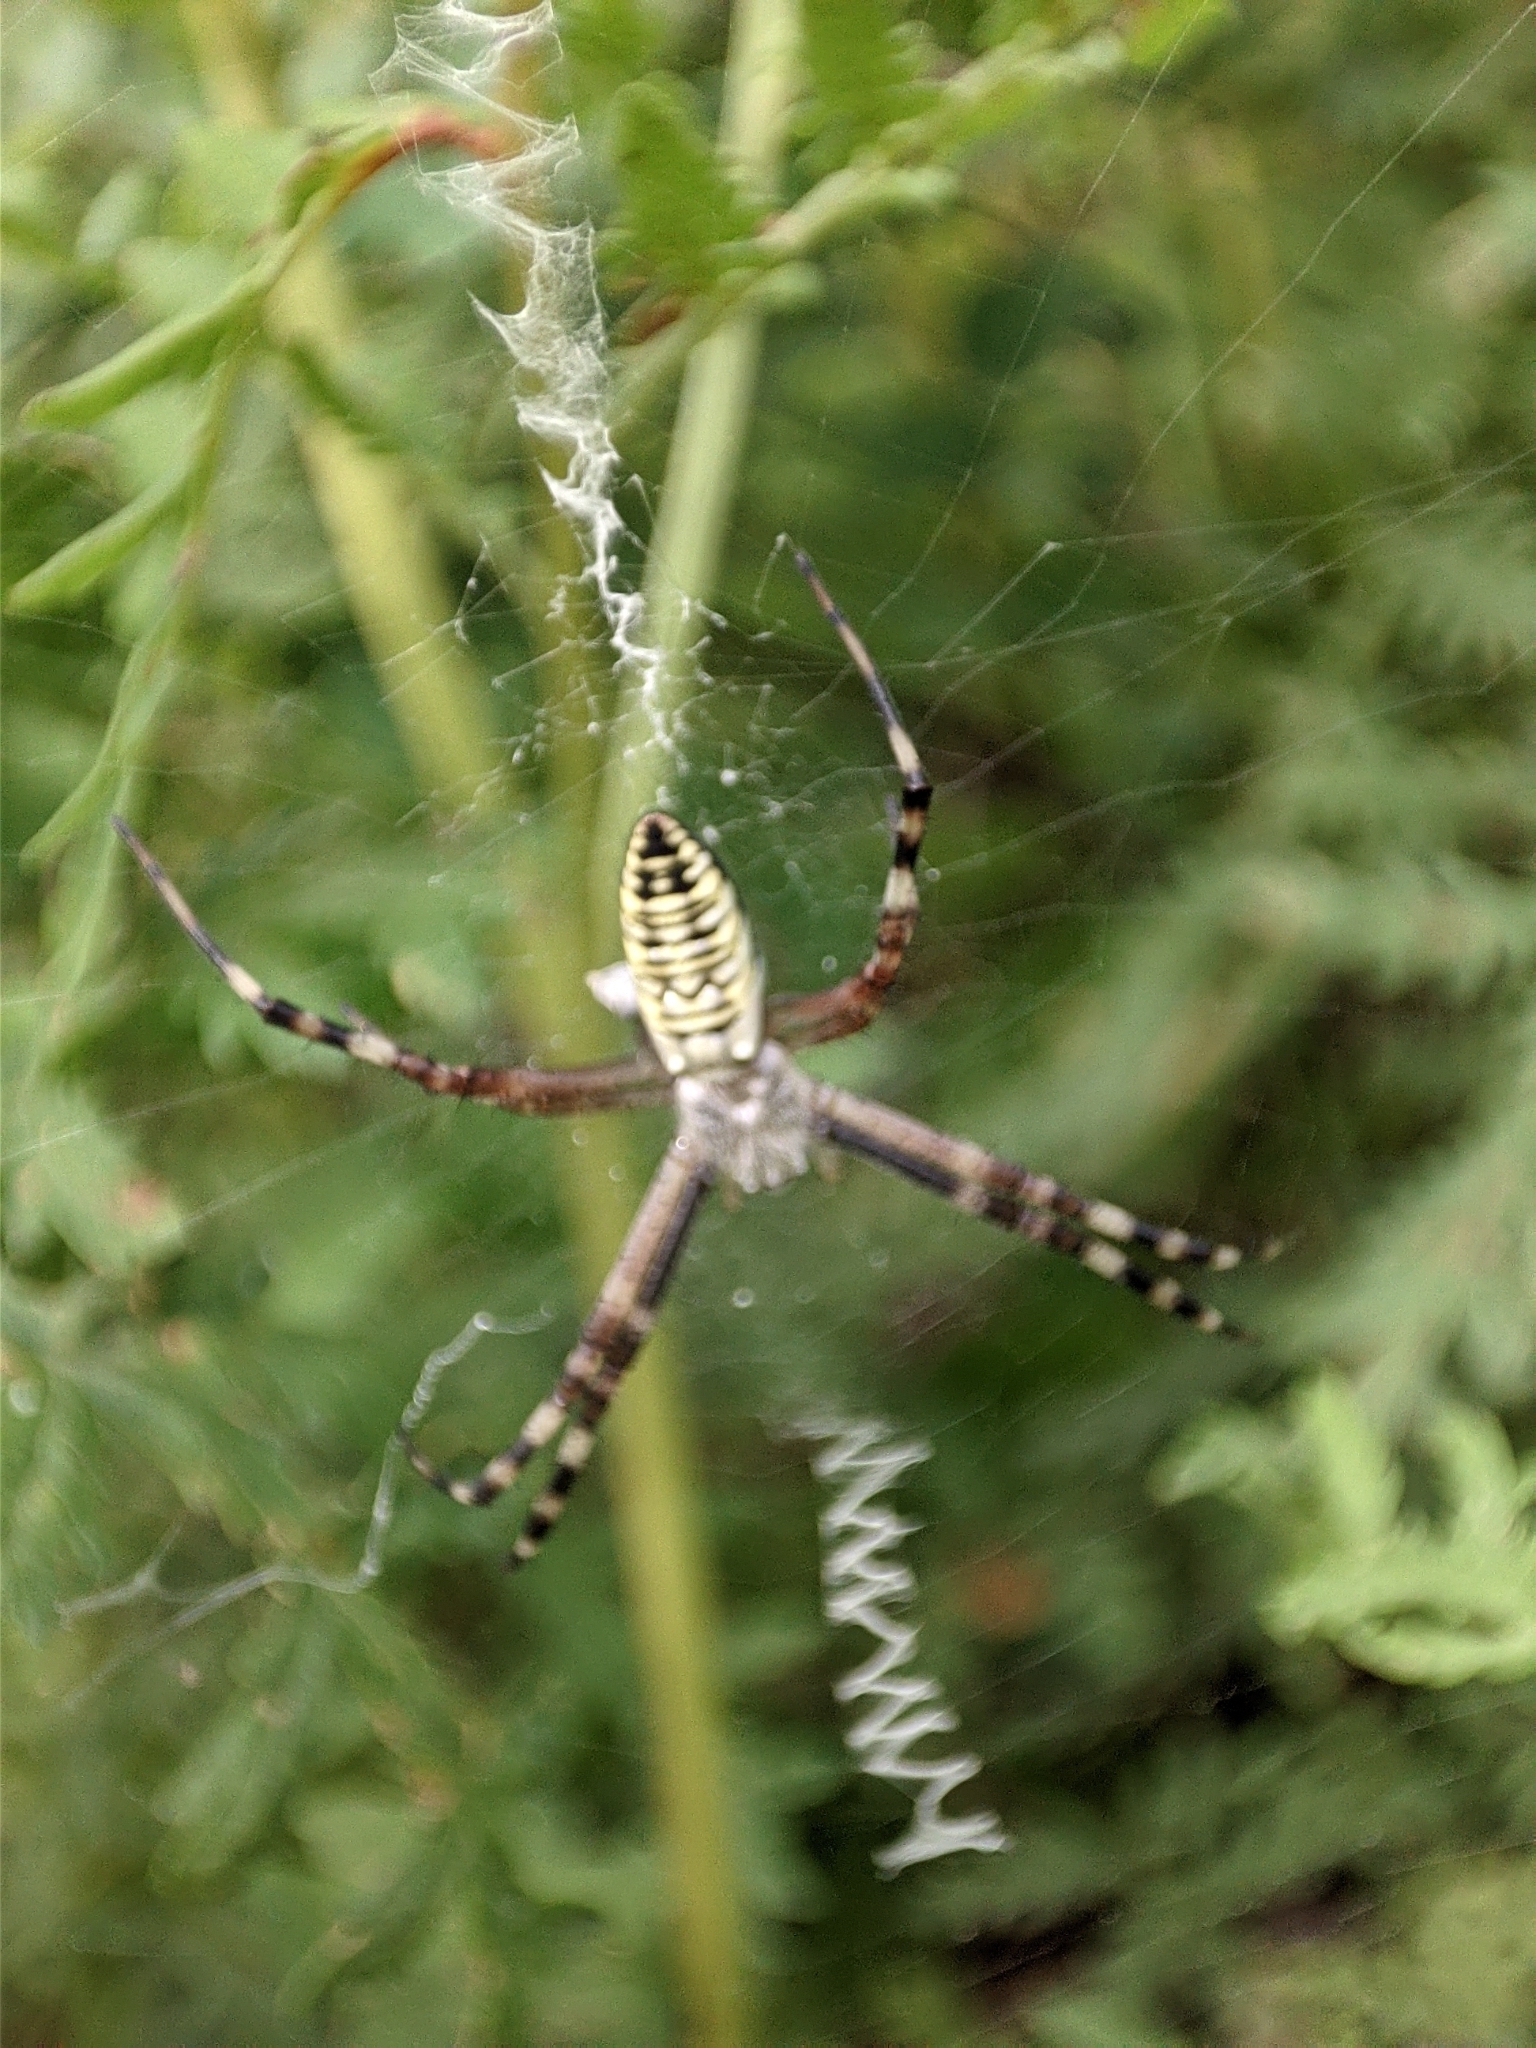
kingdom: Animalia
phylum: Arthropoda
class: Arachnida
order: Araneae
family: Araneidae
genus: Argiope
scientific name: Argiope bruennichi
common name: Wasp spider
